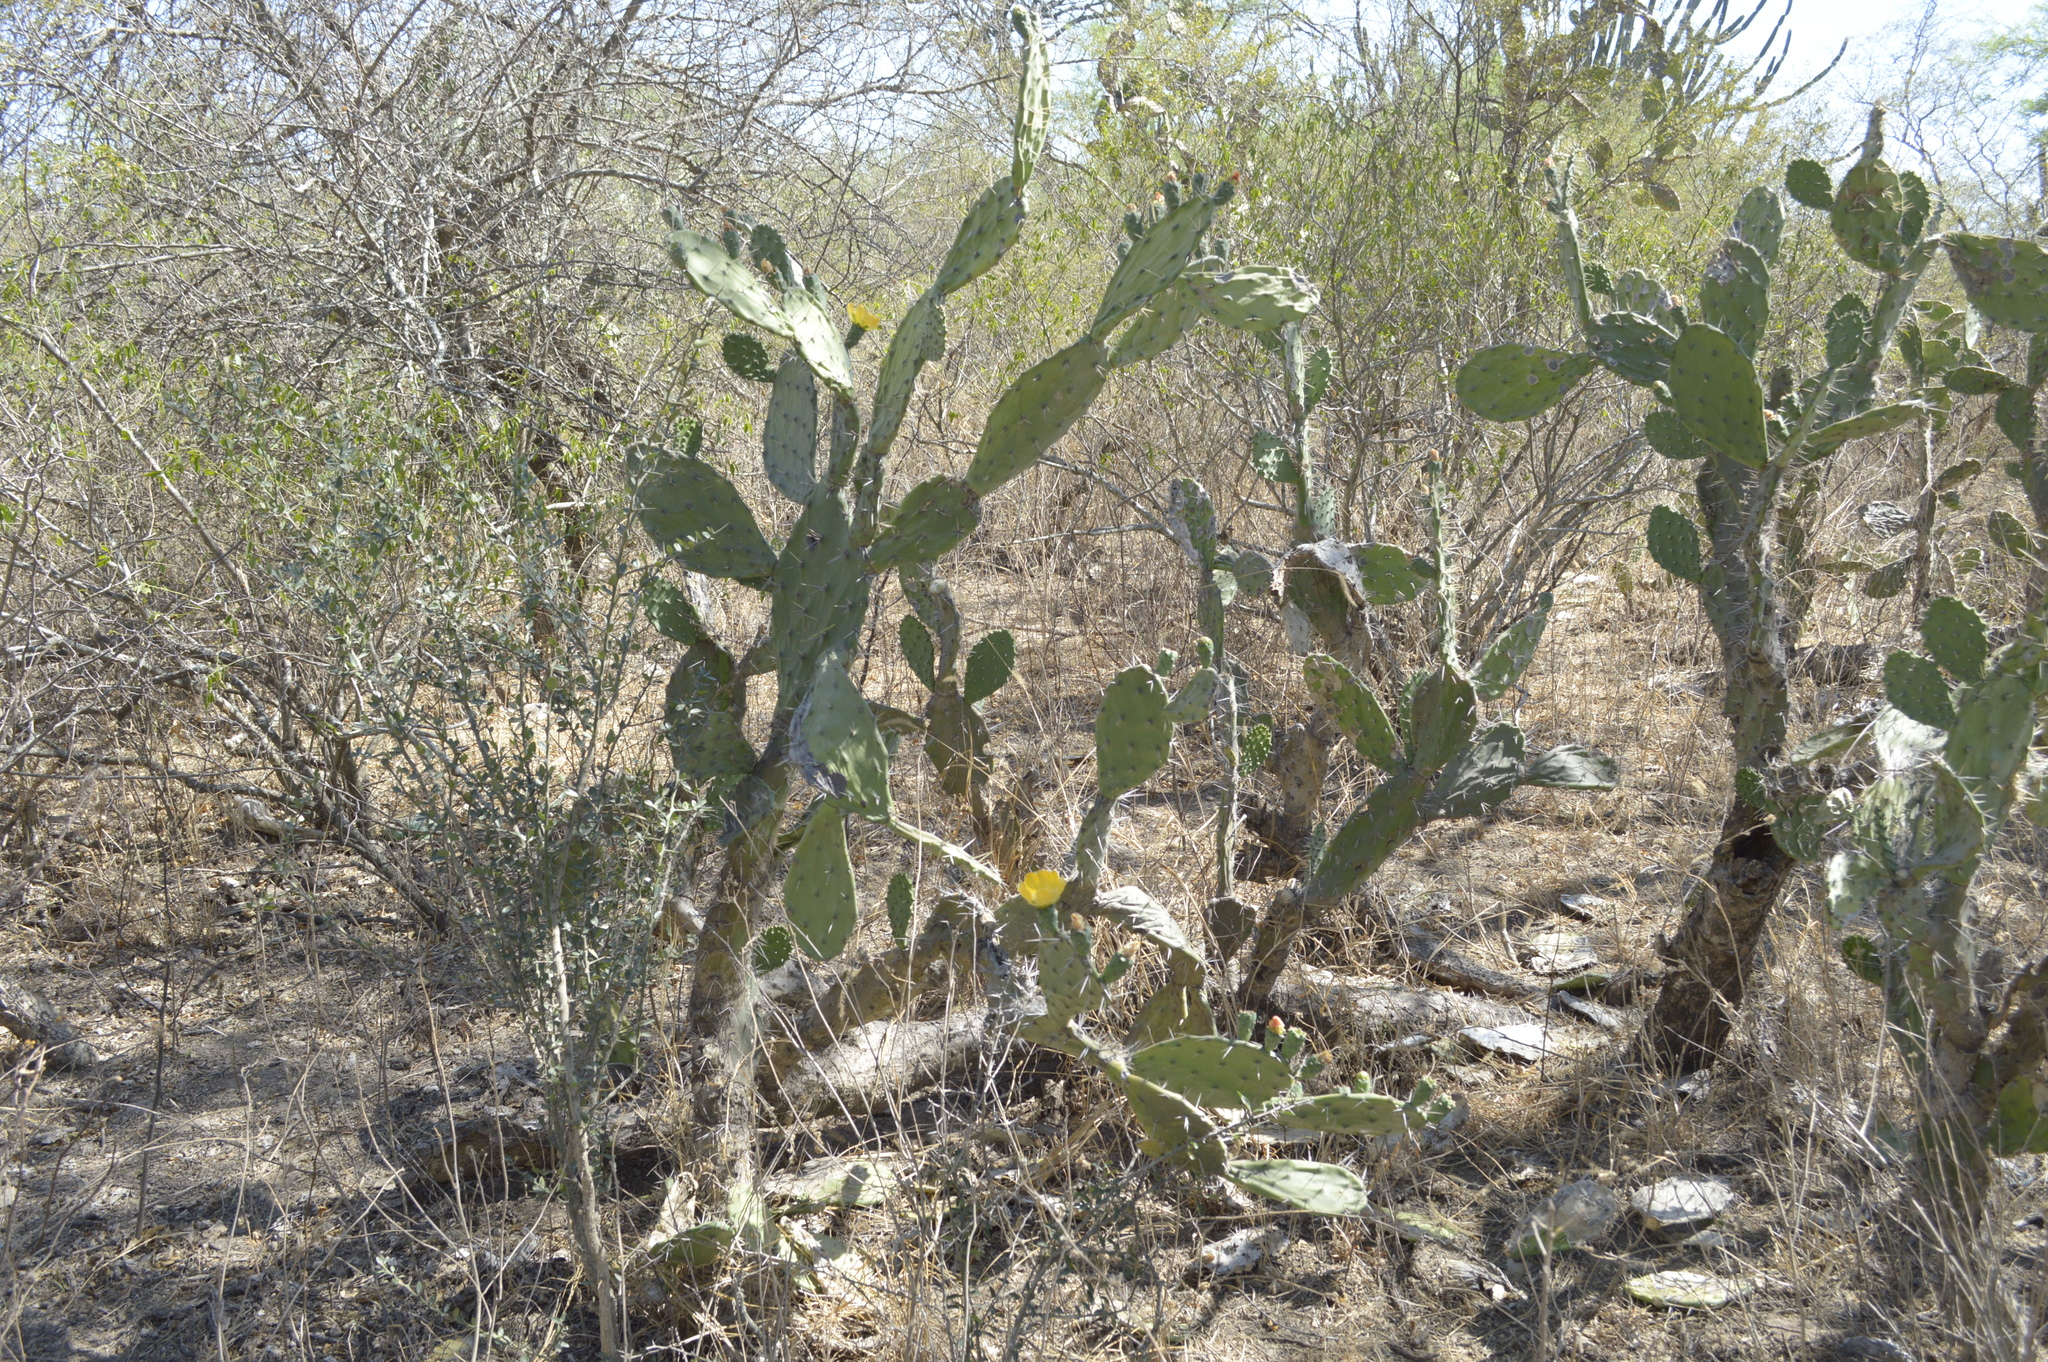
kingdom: Plantae
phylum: Tracheophyta
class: Magnoliopsida
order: Caryophyllales
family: Cactaceae
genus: Opuntia
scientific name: Opuntia maxima
